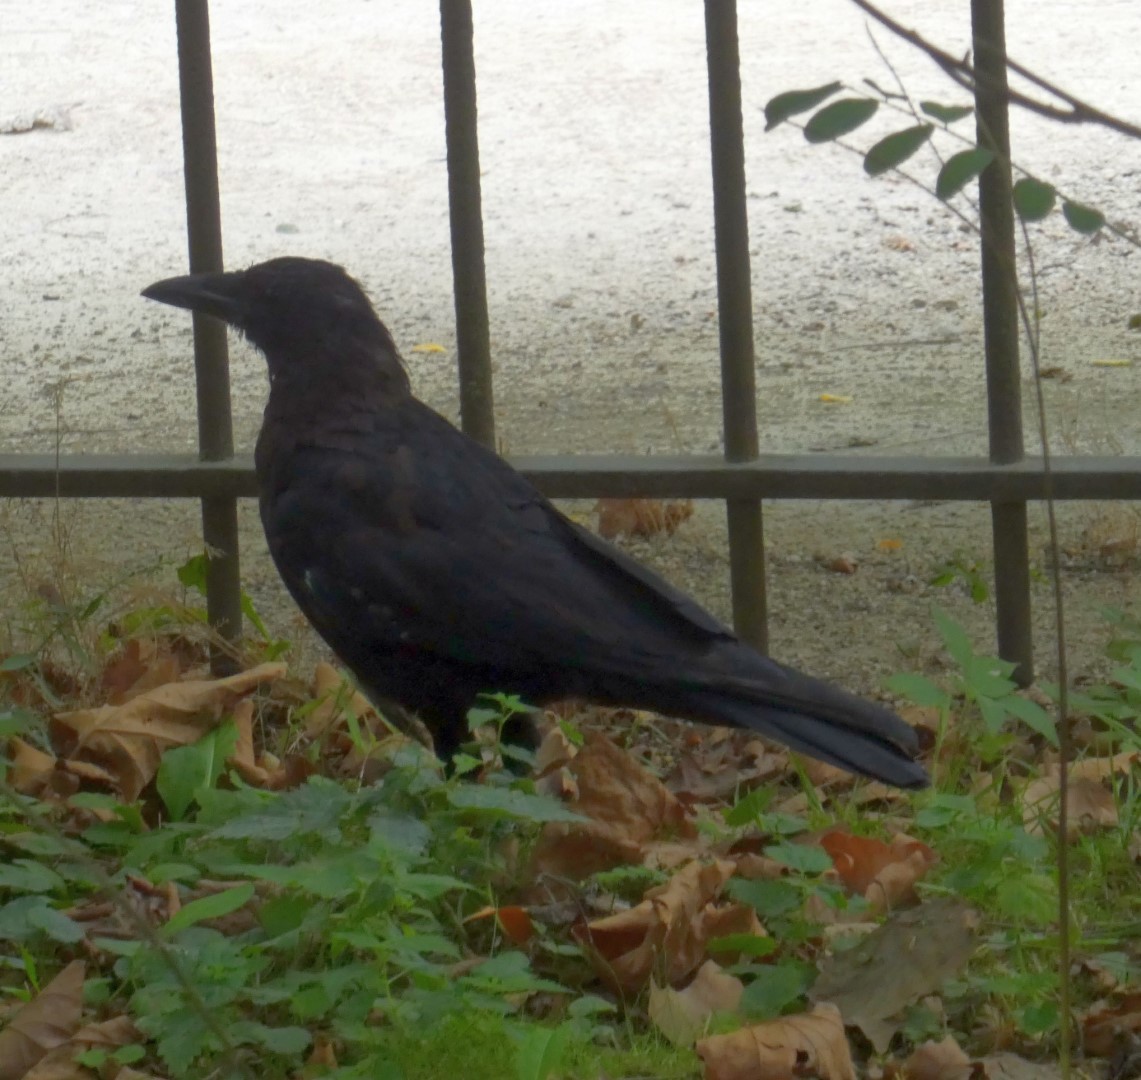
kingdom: Animalia
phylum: Chordata
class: Aves
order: Passeriformes
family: Corvidae
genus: Corvus
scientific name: Corvus corone
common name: Carrion crow
